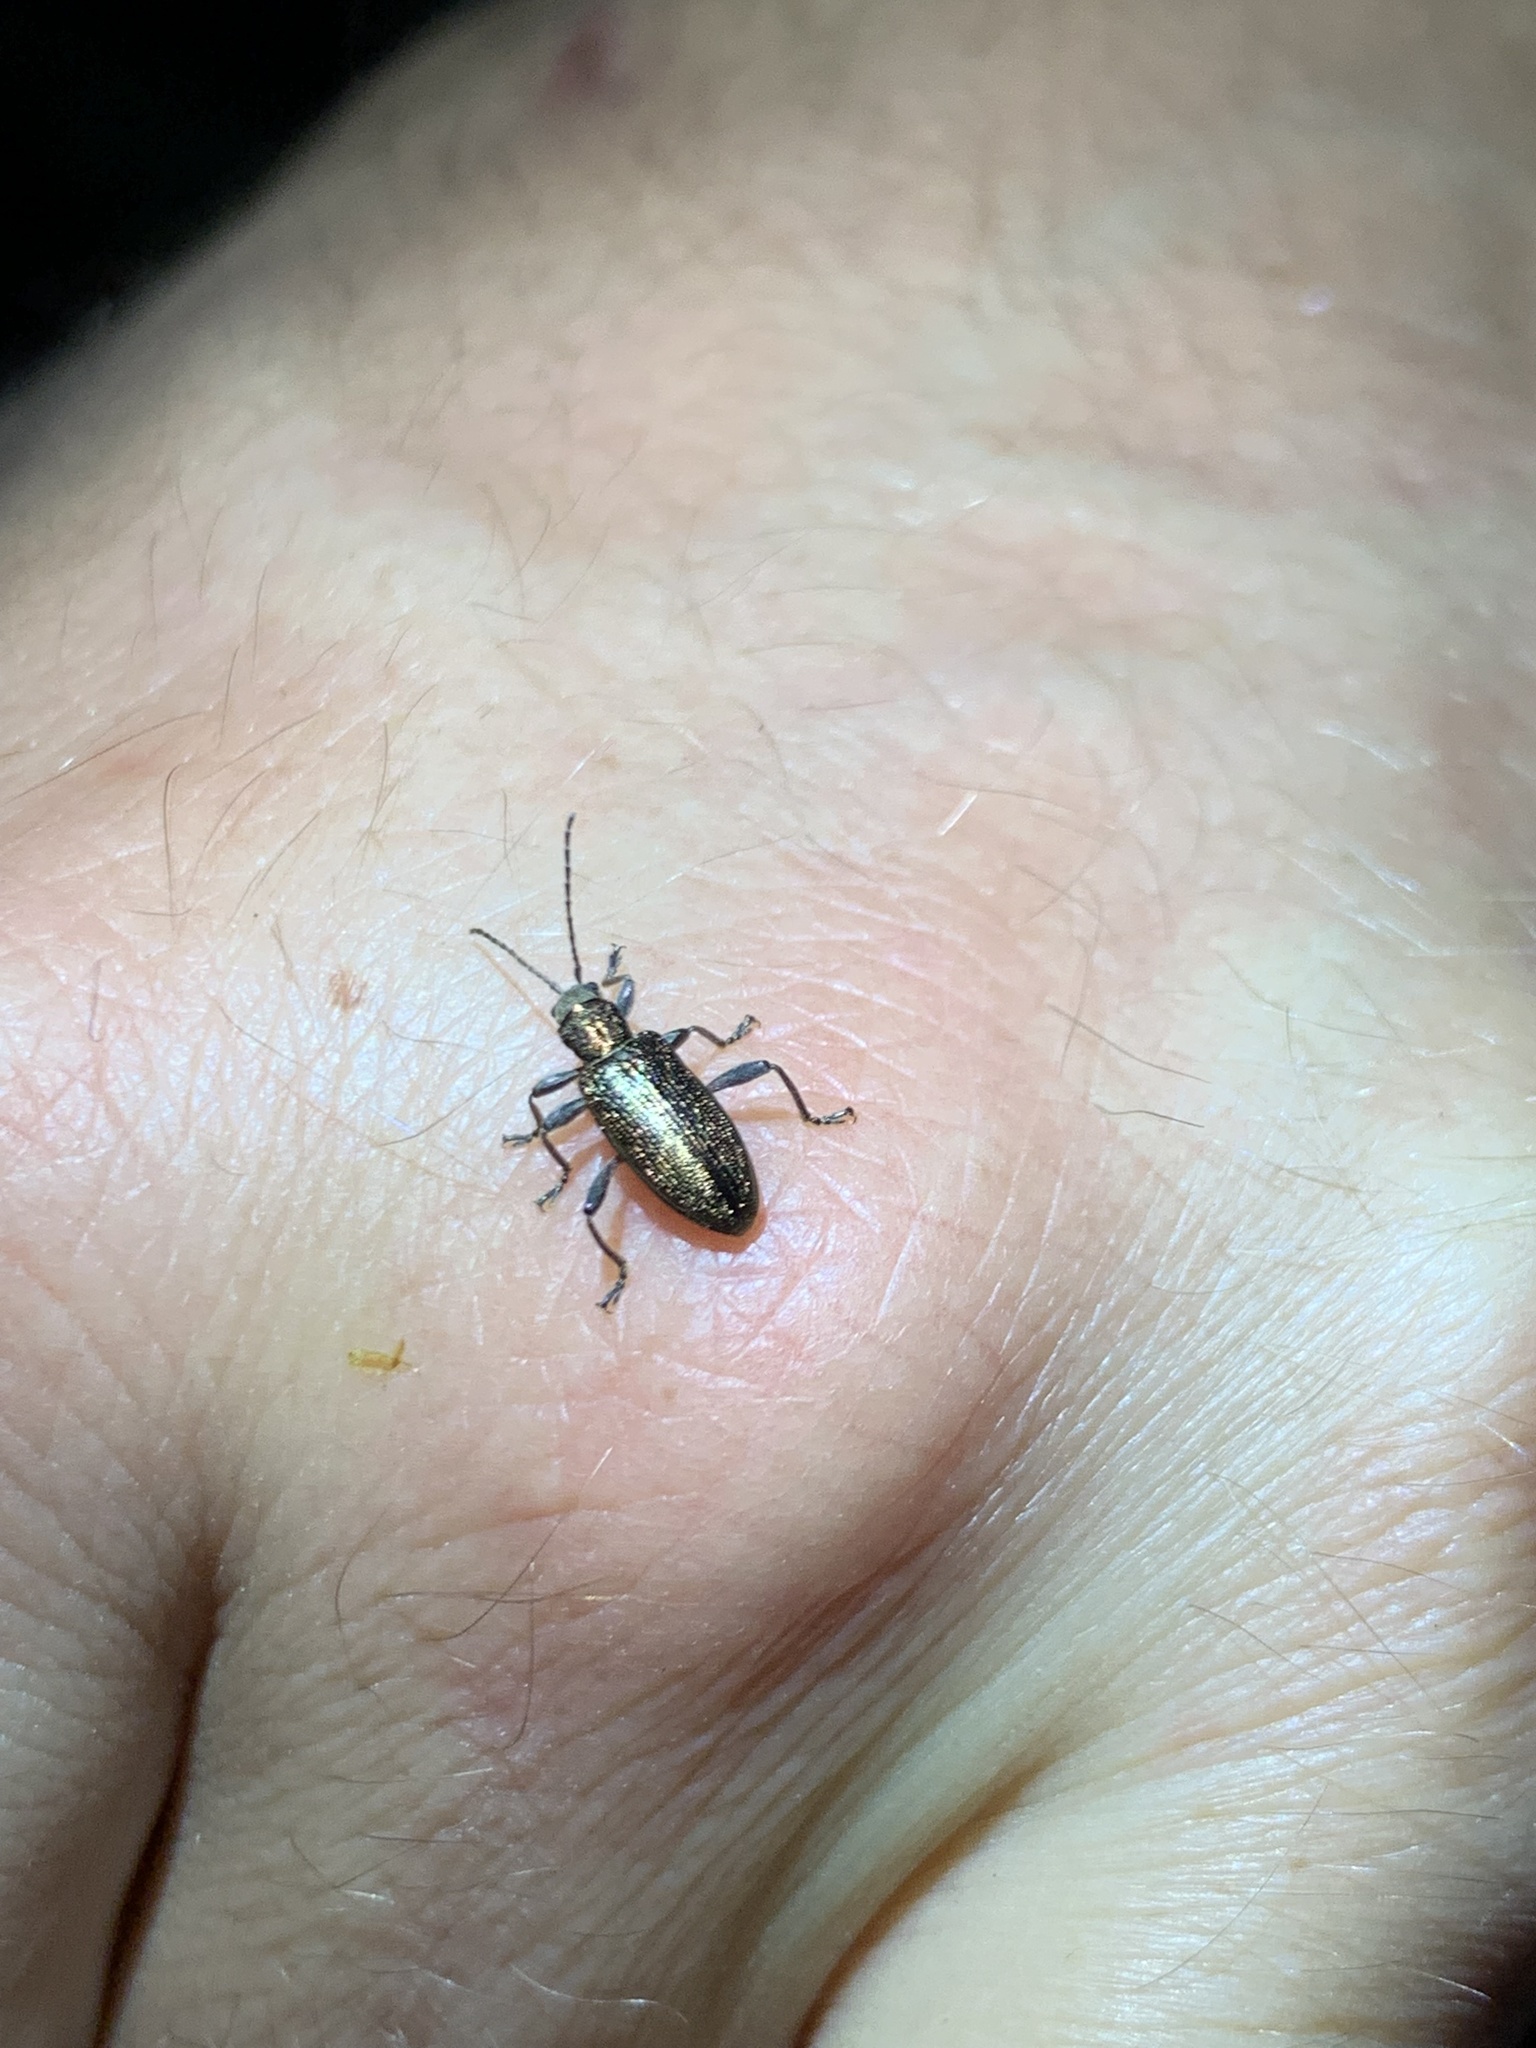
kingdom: Animalia
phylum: Arthropoda
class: Insecta
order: Coleoptera
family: Chrysomelidae
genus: Donacia
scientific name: Donacia semicuprea
